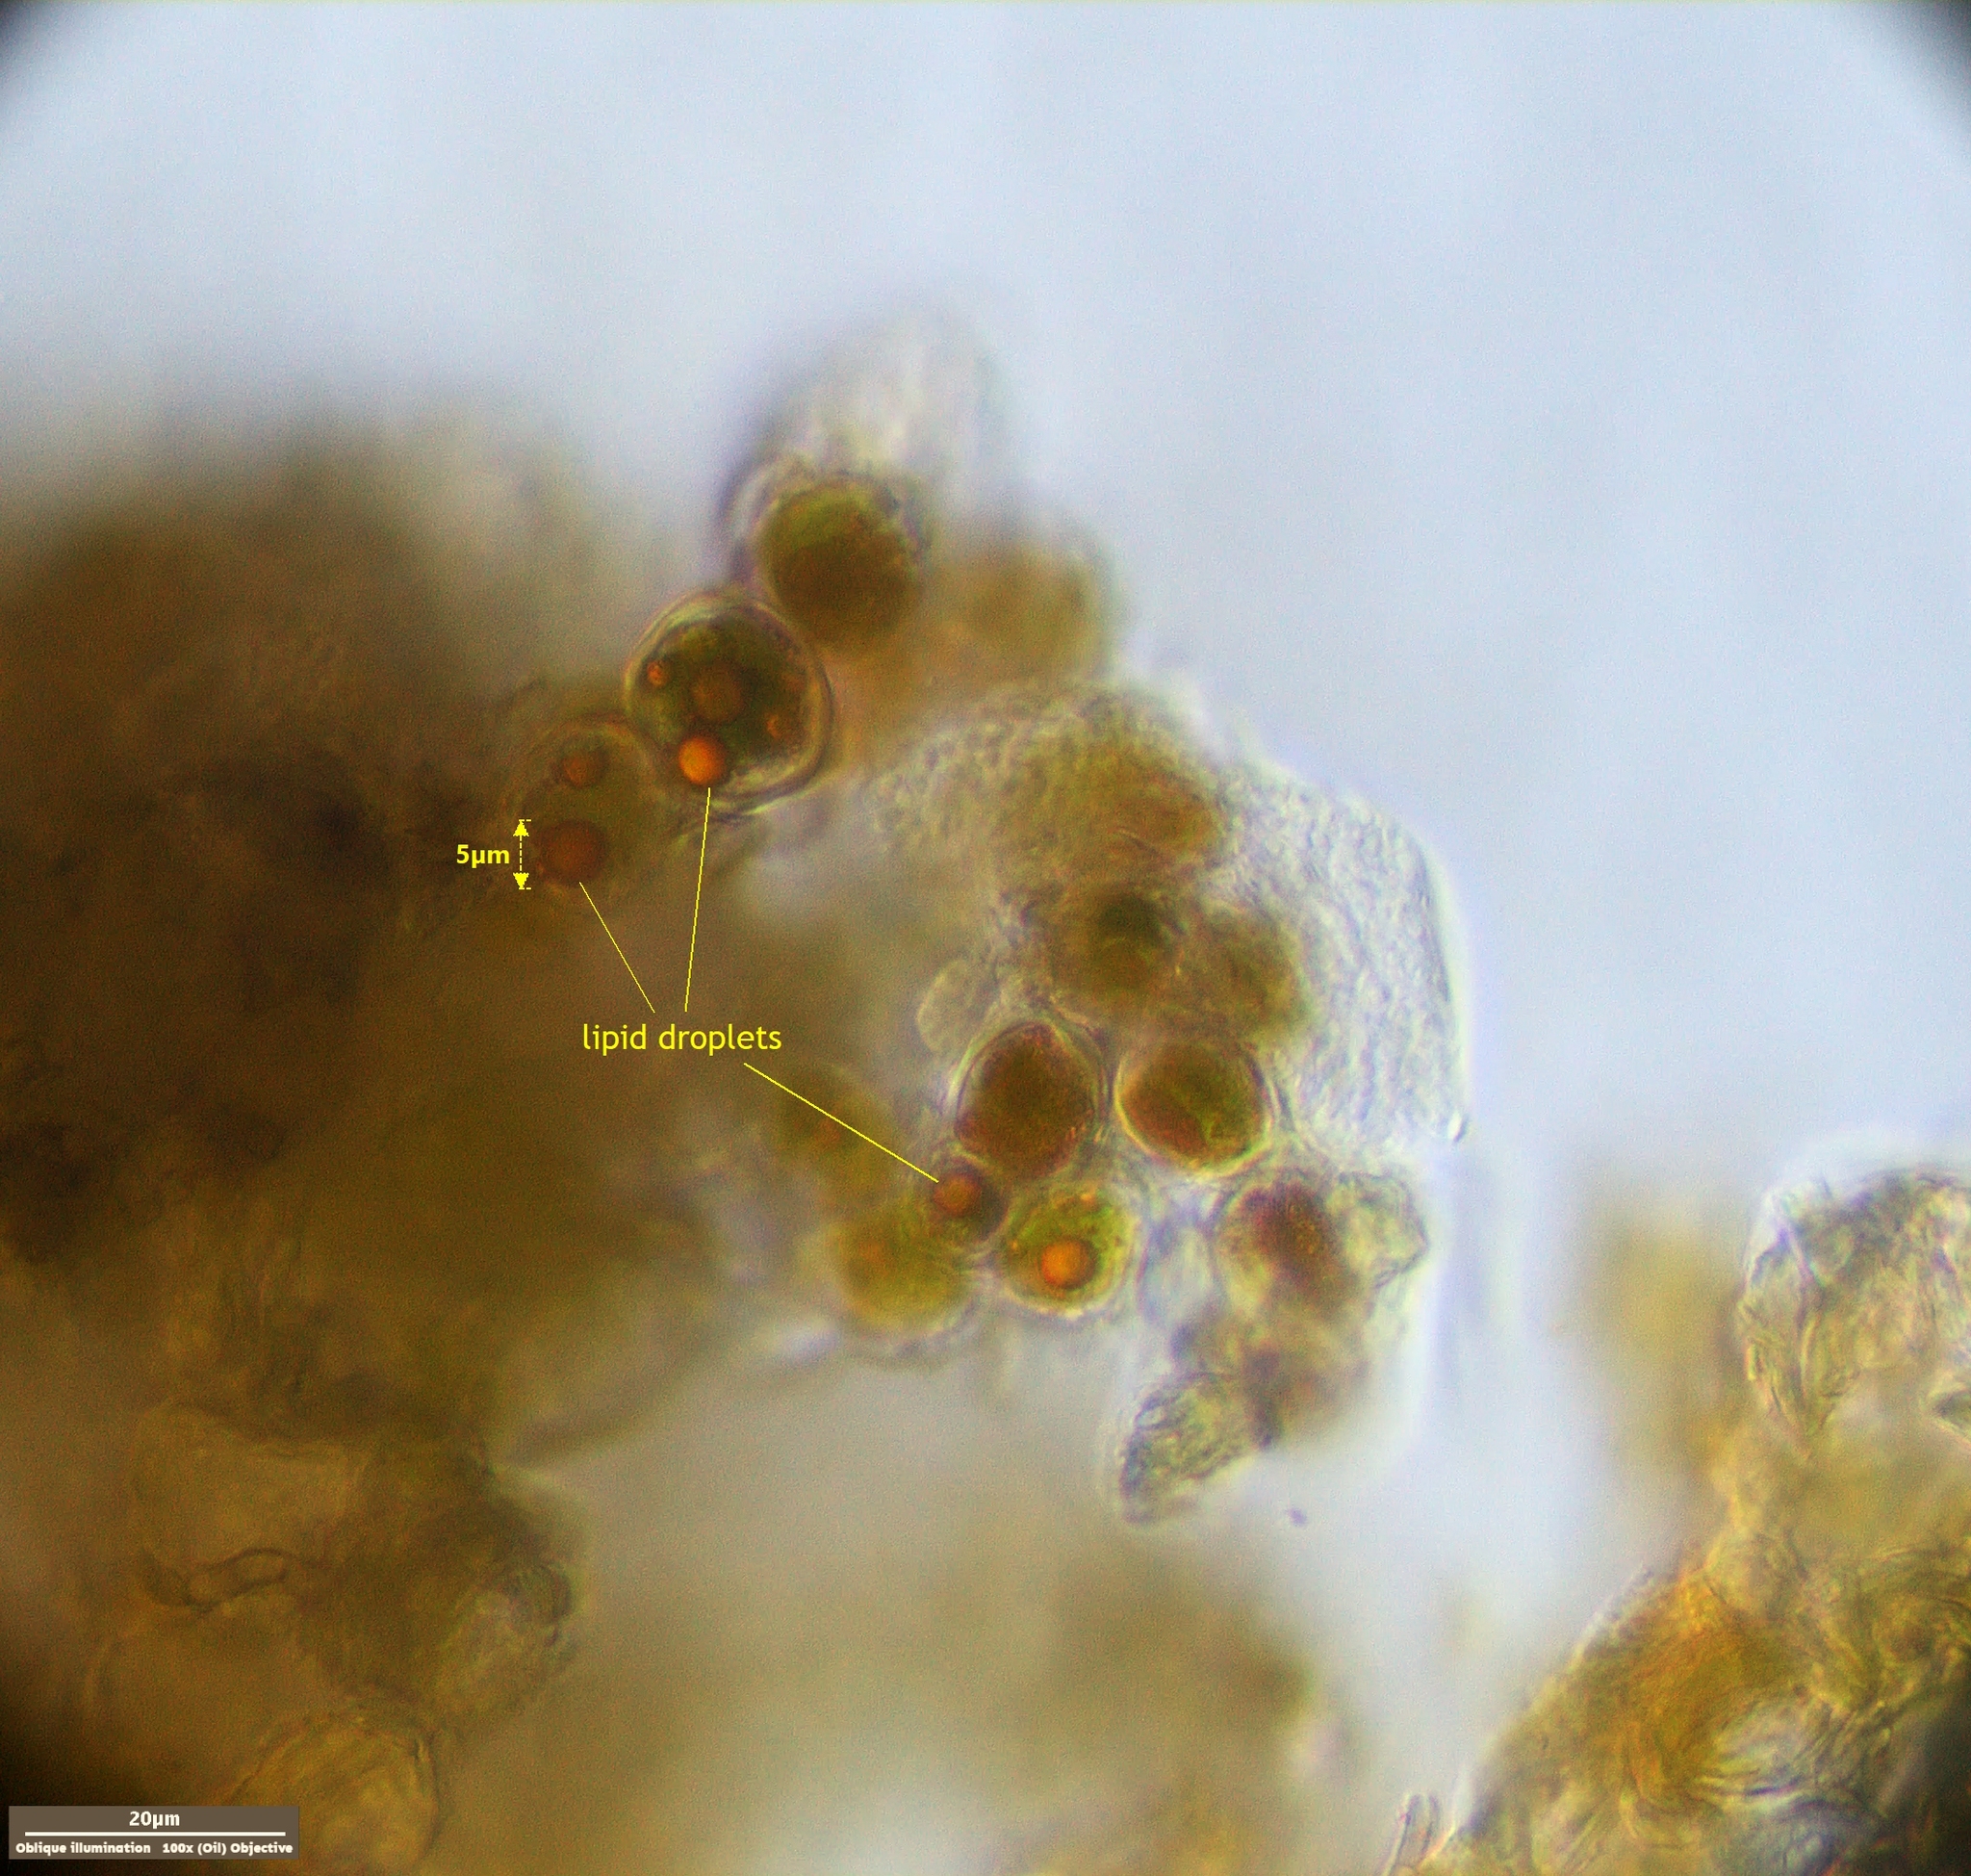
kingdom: Plantae
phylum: Chlorophyta
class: Ulvophyceae
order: Trentepohliales
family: Trentepohliaceae
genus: Trentepohlia
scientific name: Trentepohlia umbrina
